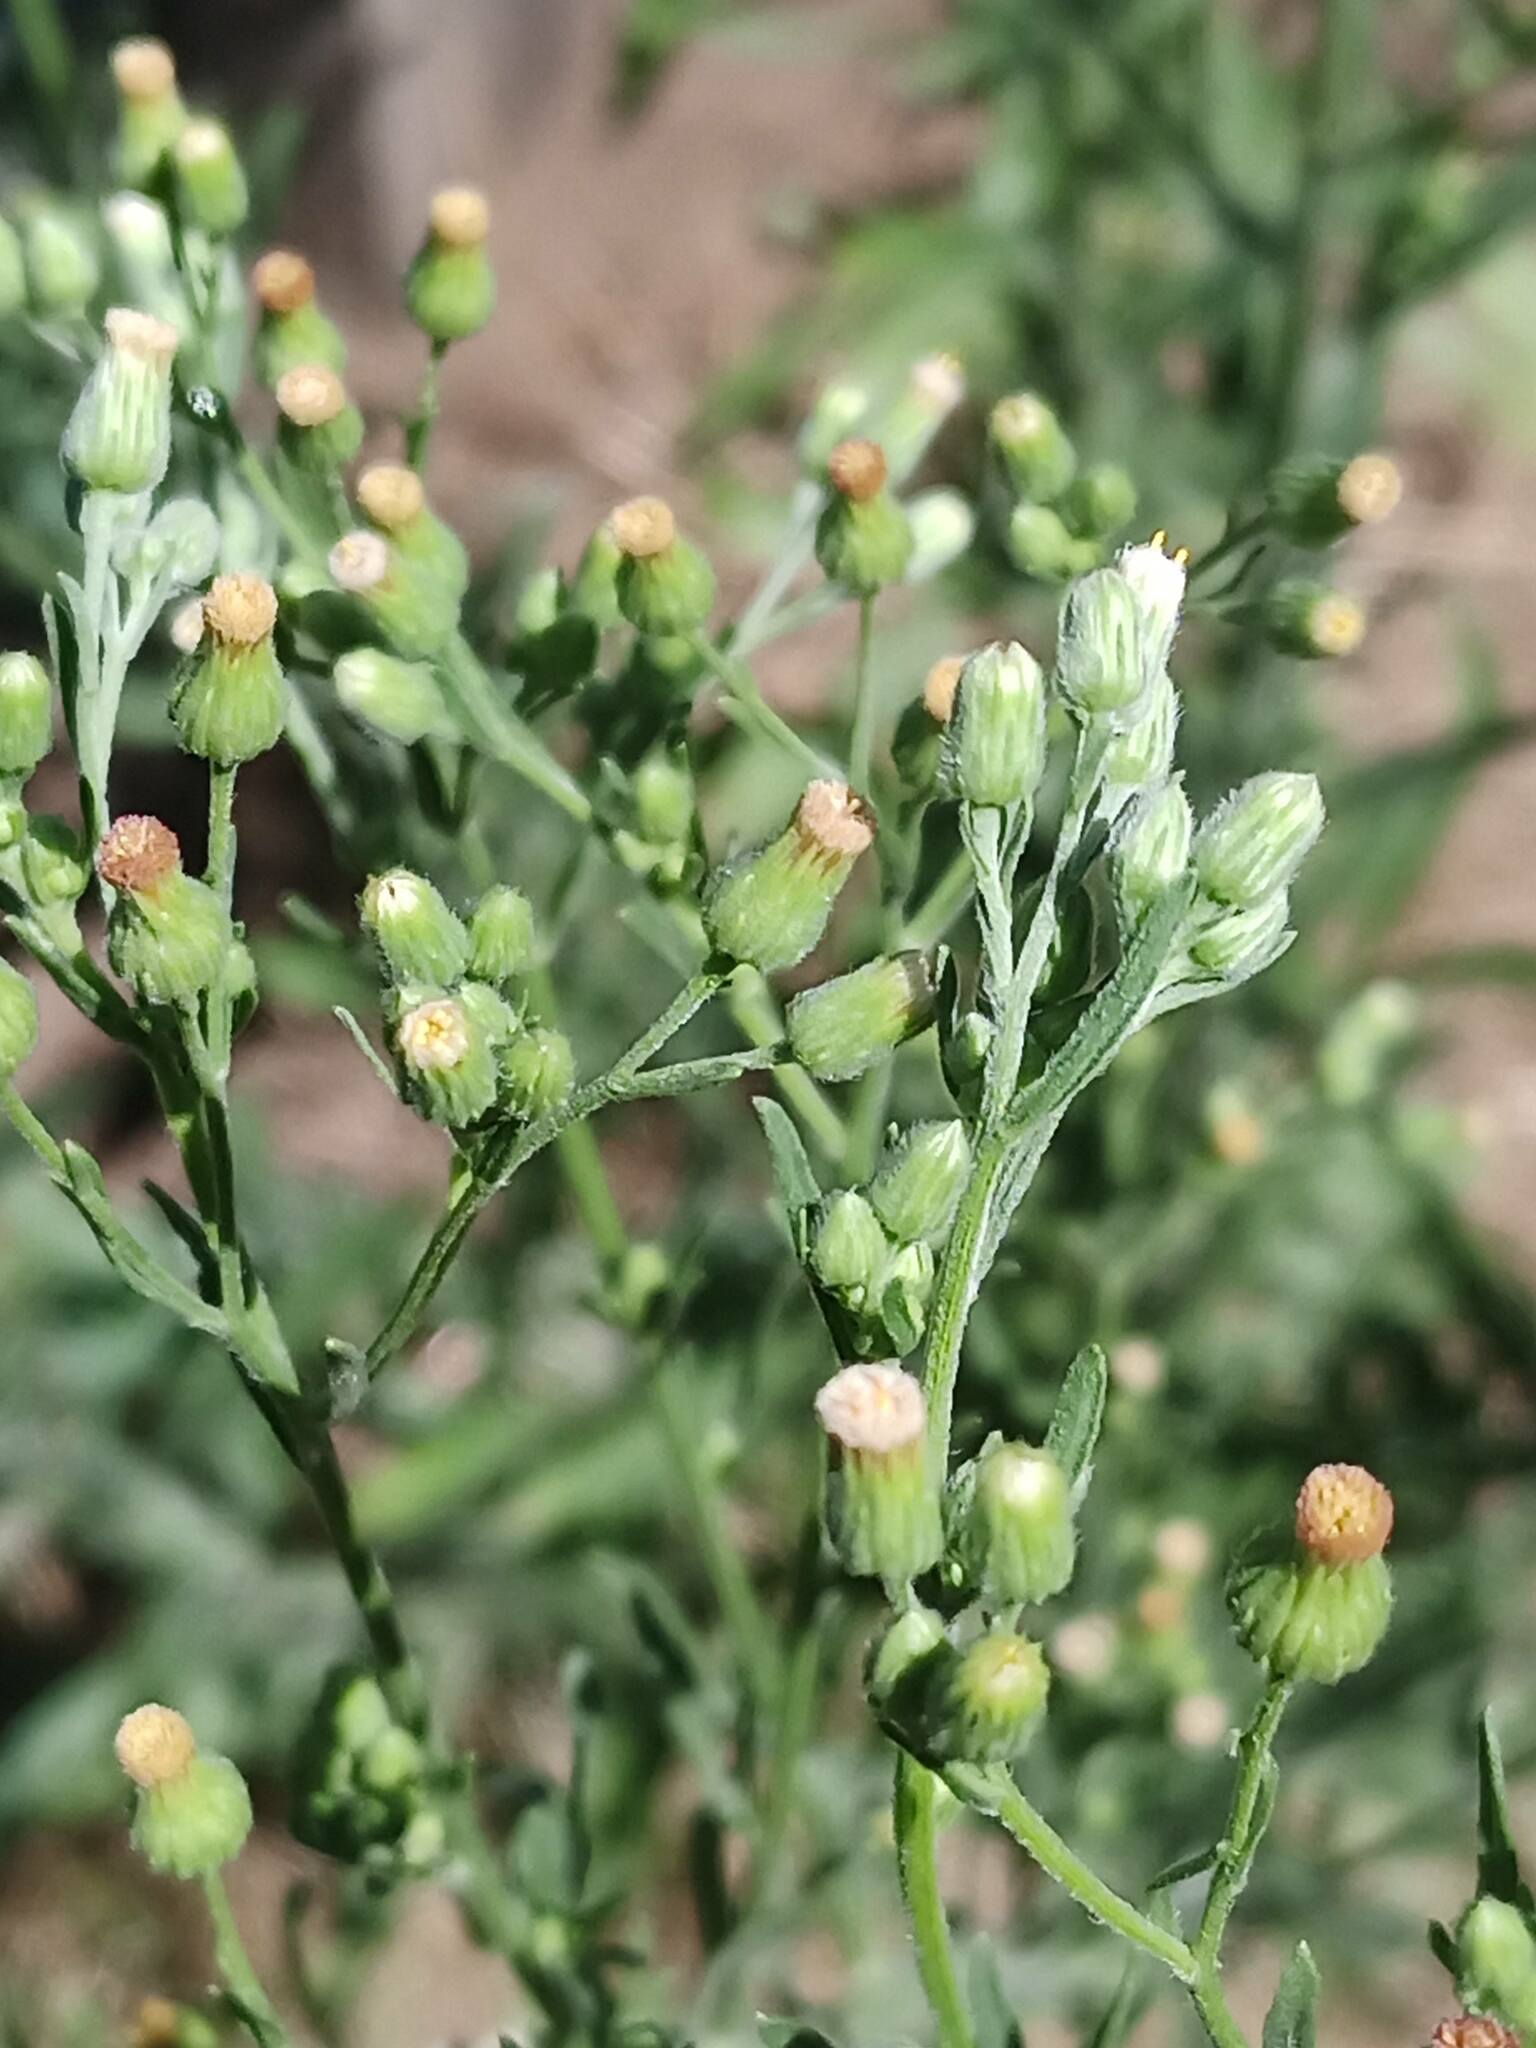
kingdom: Plantae
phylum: Tracheophyta
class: Magnoliopsida
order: Asterales
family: Asteraceae
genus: Erigeron
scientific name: Erigeron sumatrensis
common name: Daisy
